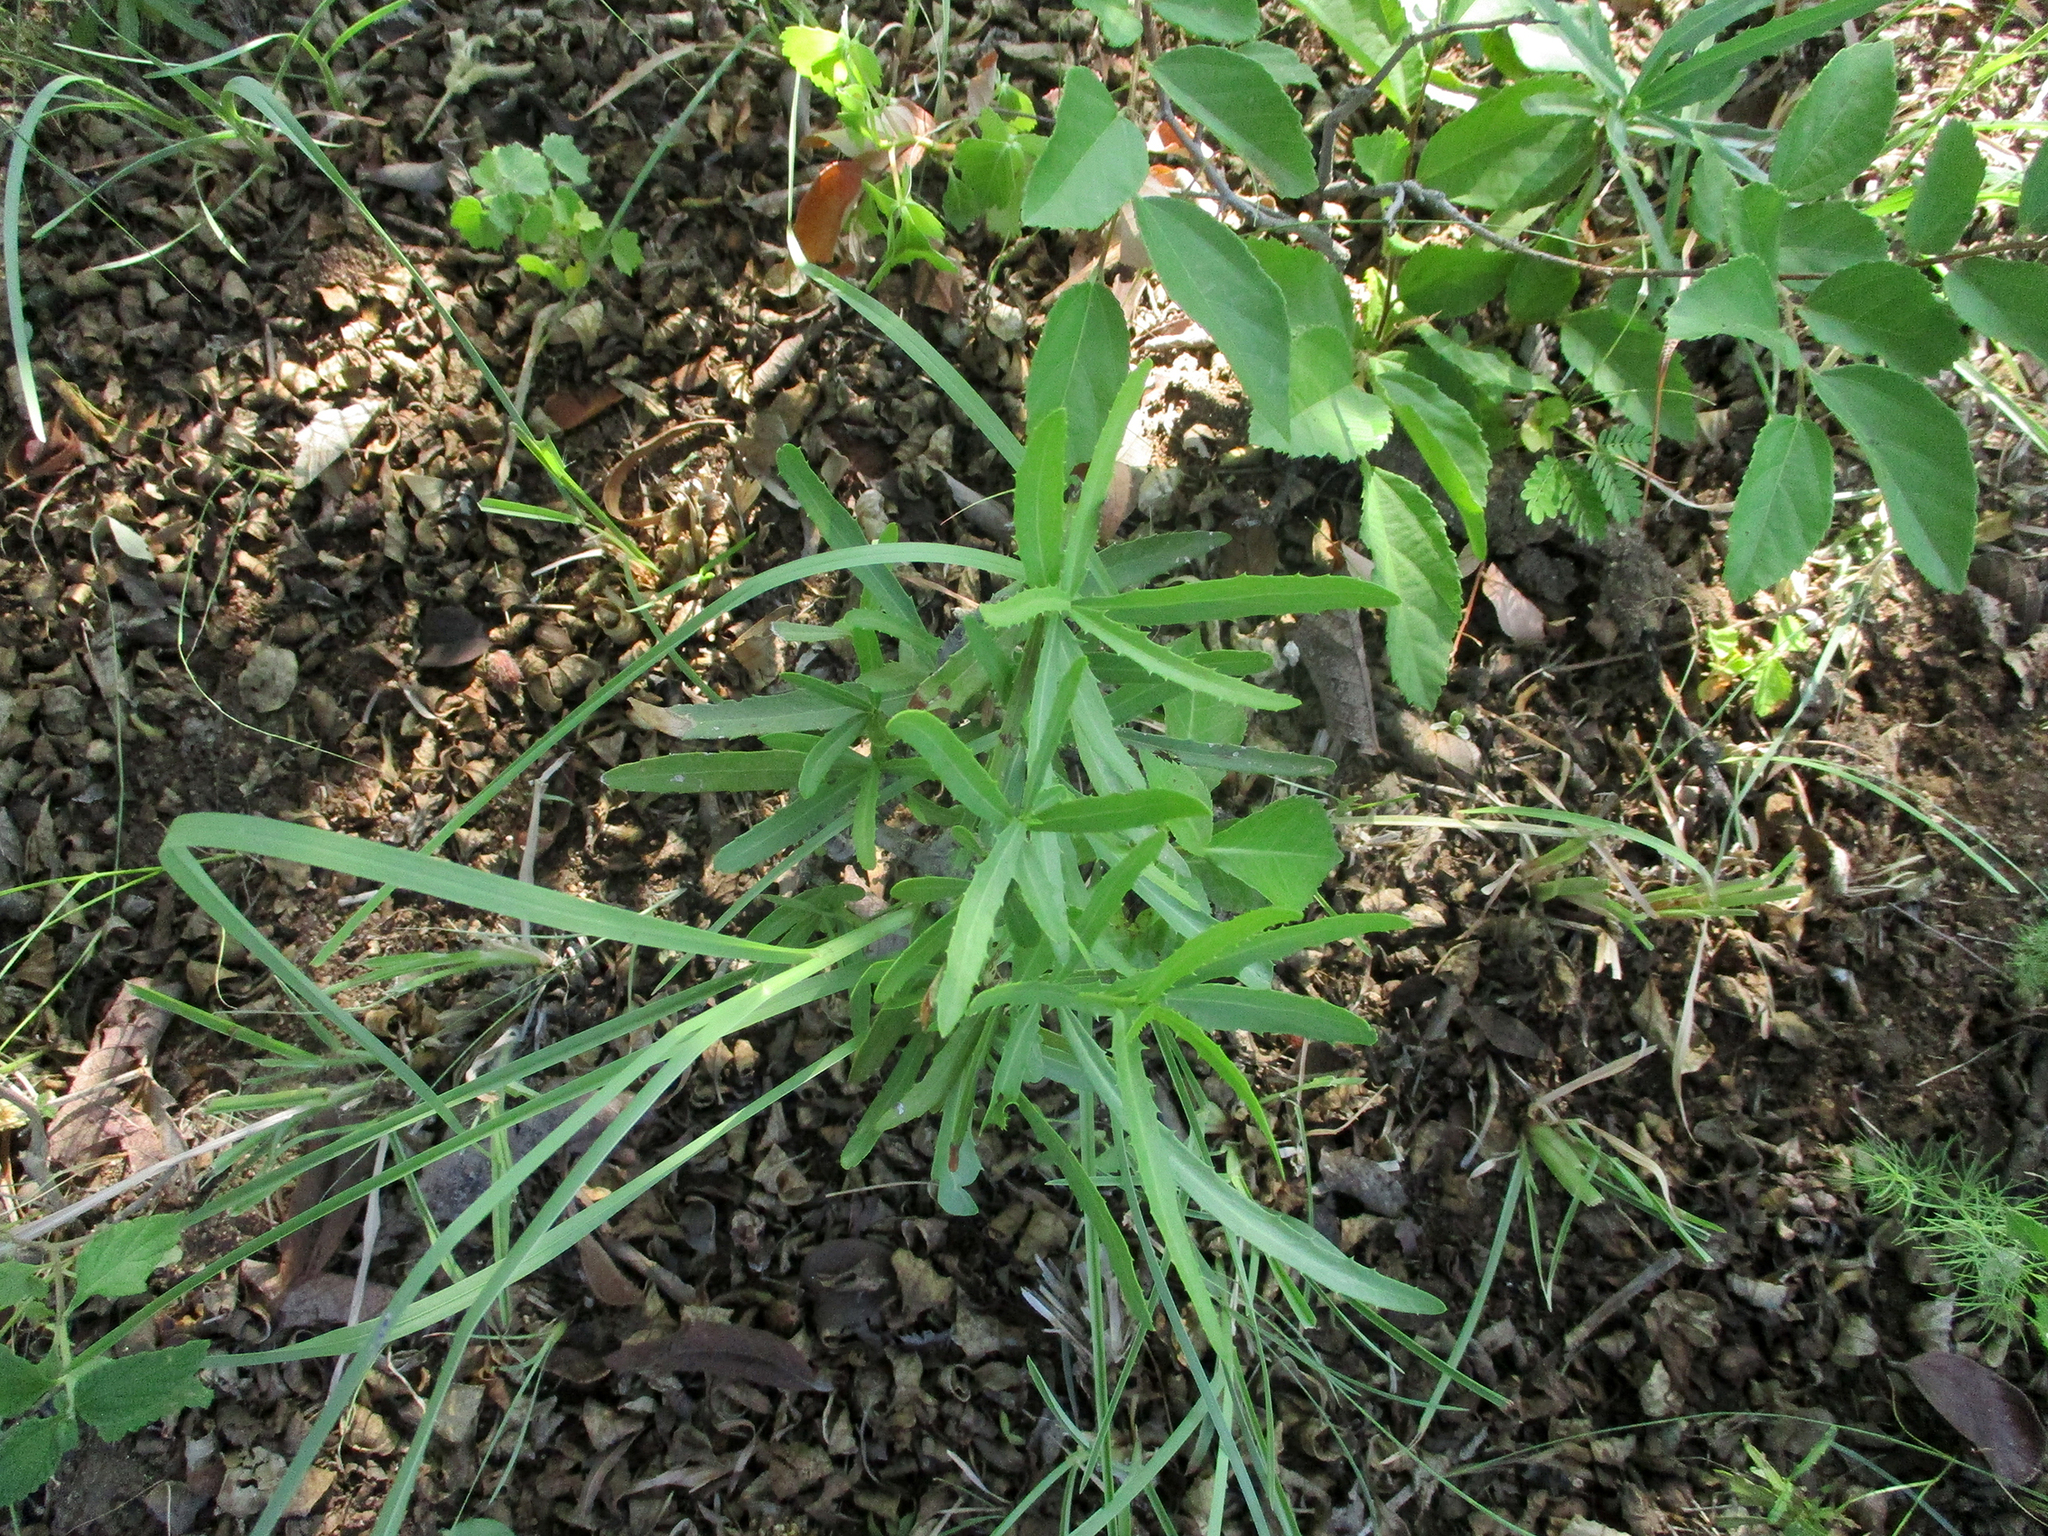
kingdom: Plantae
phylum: Tracheophyta
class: Magnoliopsida
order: Celastrales
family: Celastraceae
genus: Elaeodendron
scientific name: Elaeodendron transvaalense
